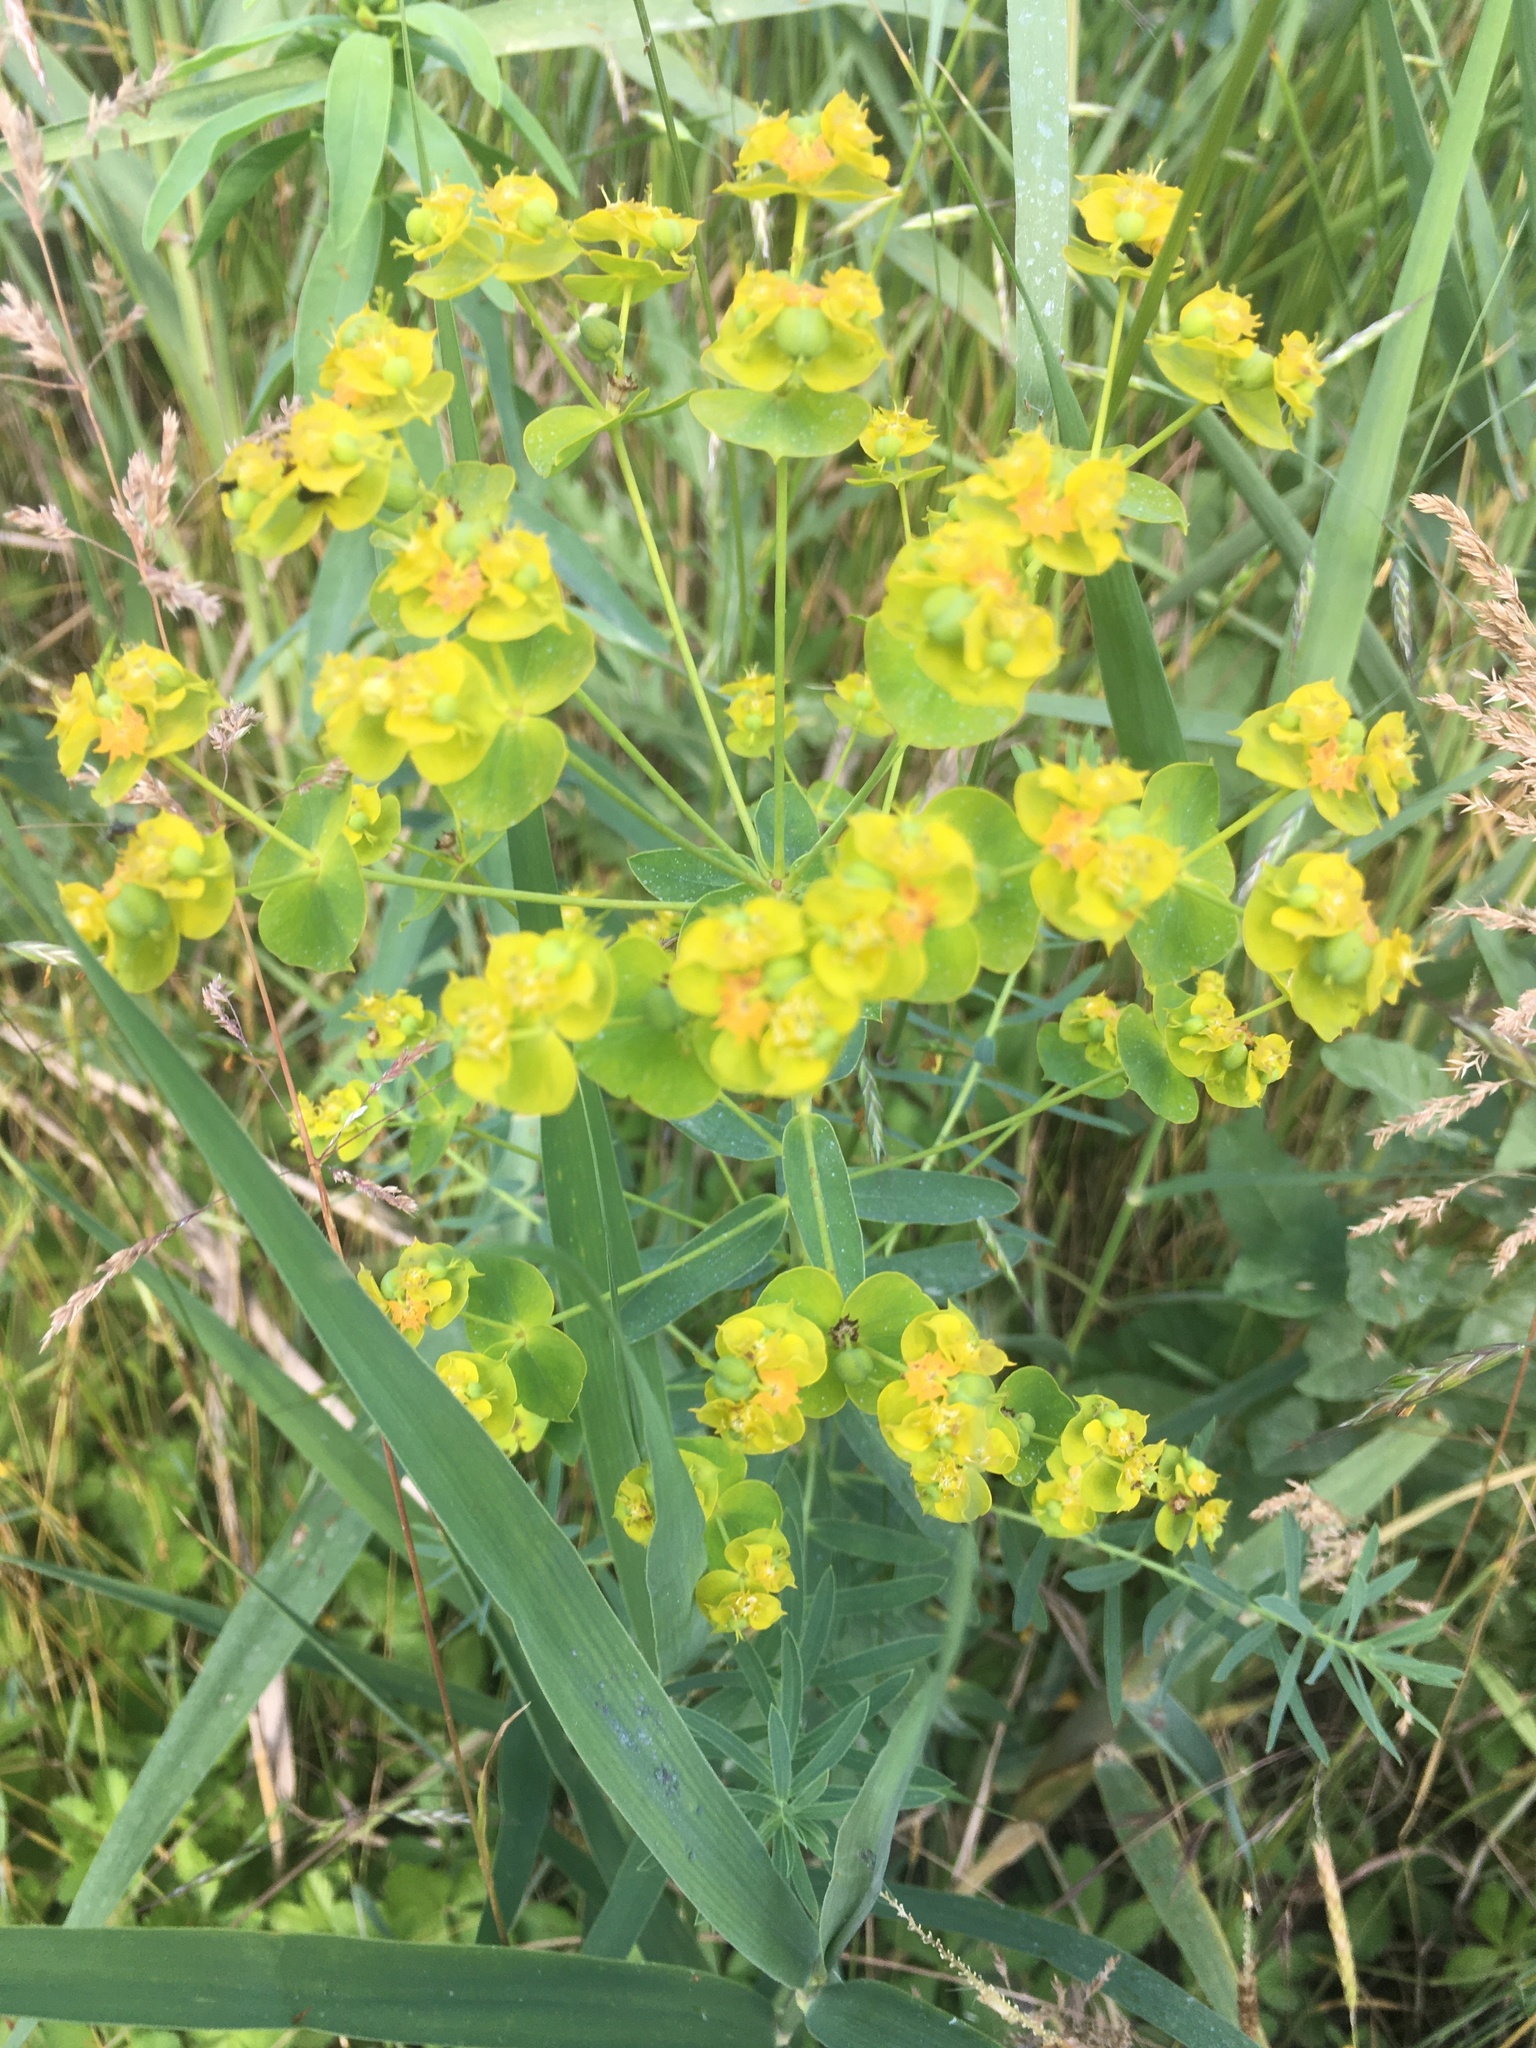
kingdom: Plantae
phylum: Tracheophyta
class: Magnoliopsida
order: Malpighiales
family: Euphorbiaceae
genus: Euphorbia
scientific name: Euphorbia agraria
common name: Urban spurge
